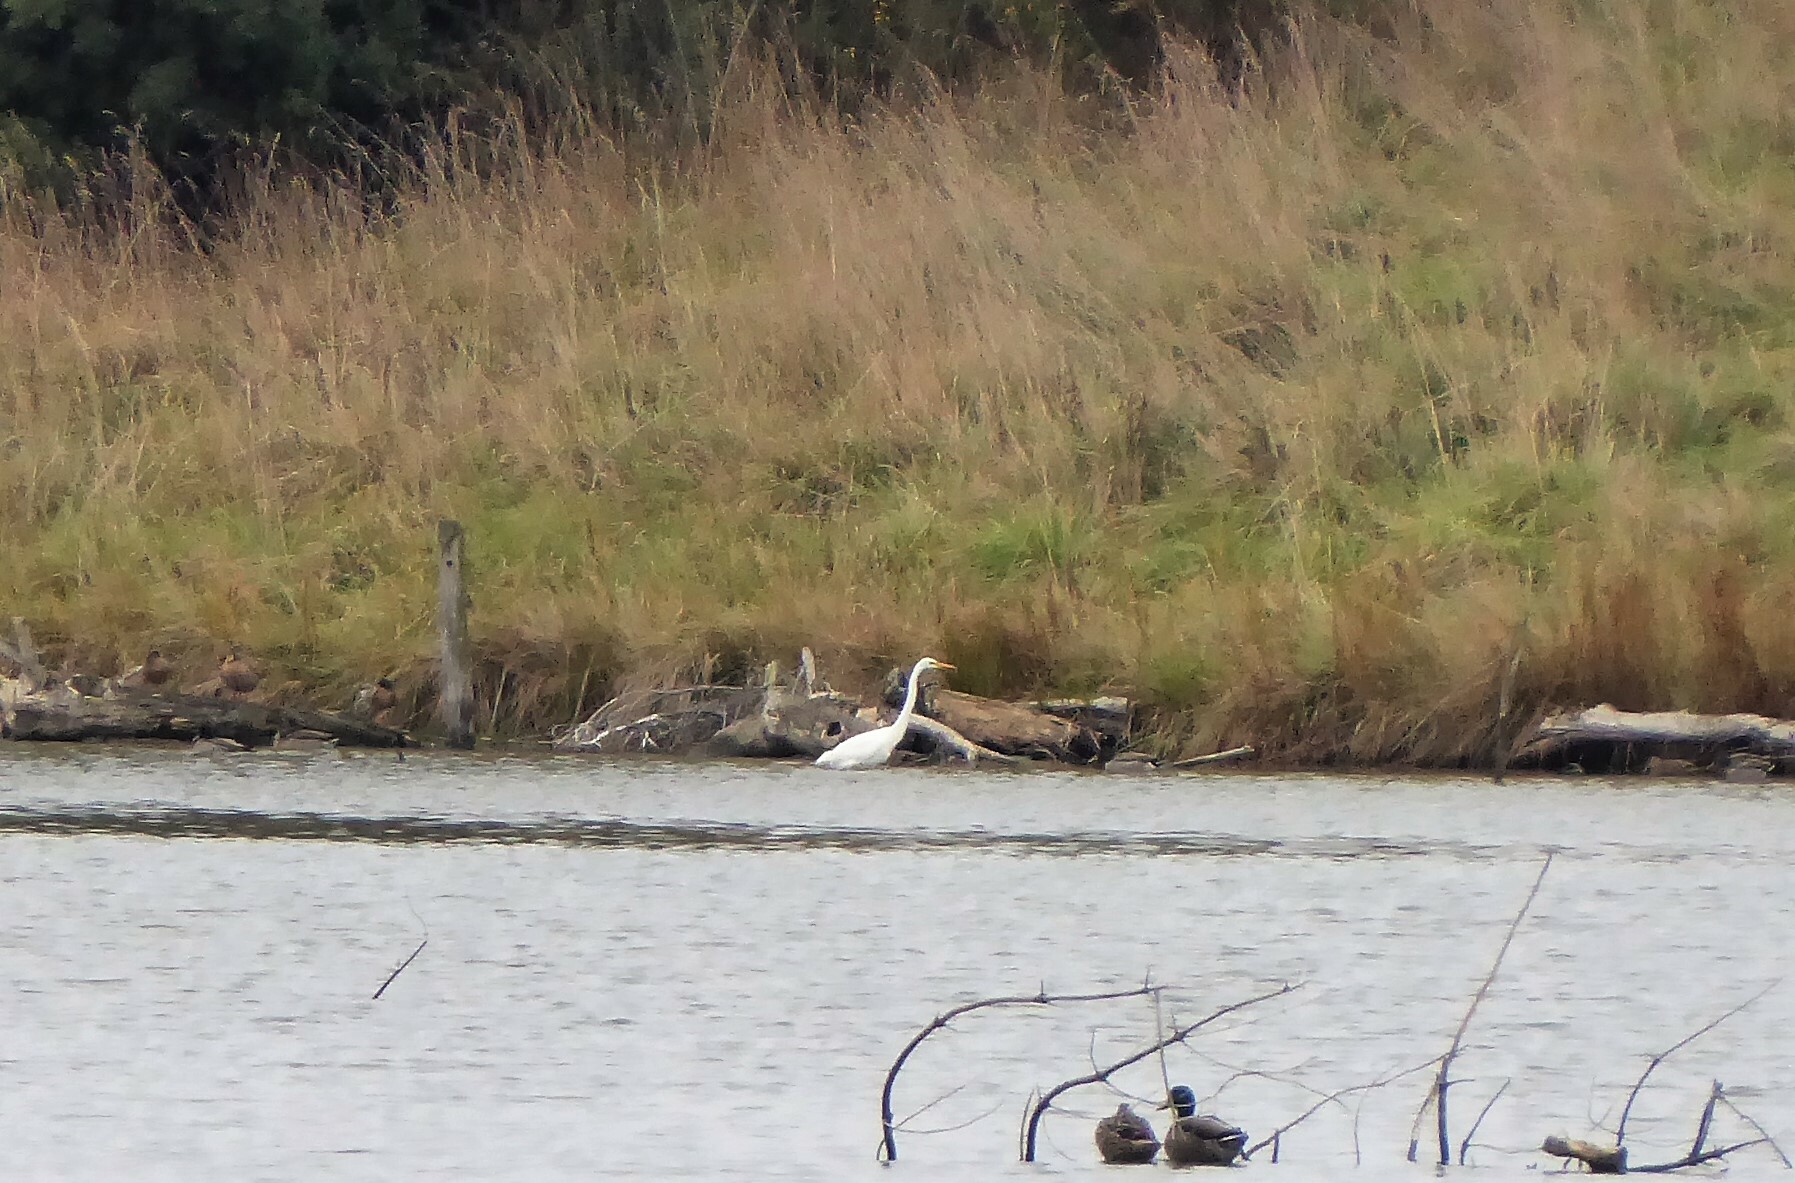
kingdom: Animalia
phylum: Chordata
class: Aves
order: Pelecaniformes
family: Ardeidae
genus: Ardea
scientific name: Ardea modesta
